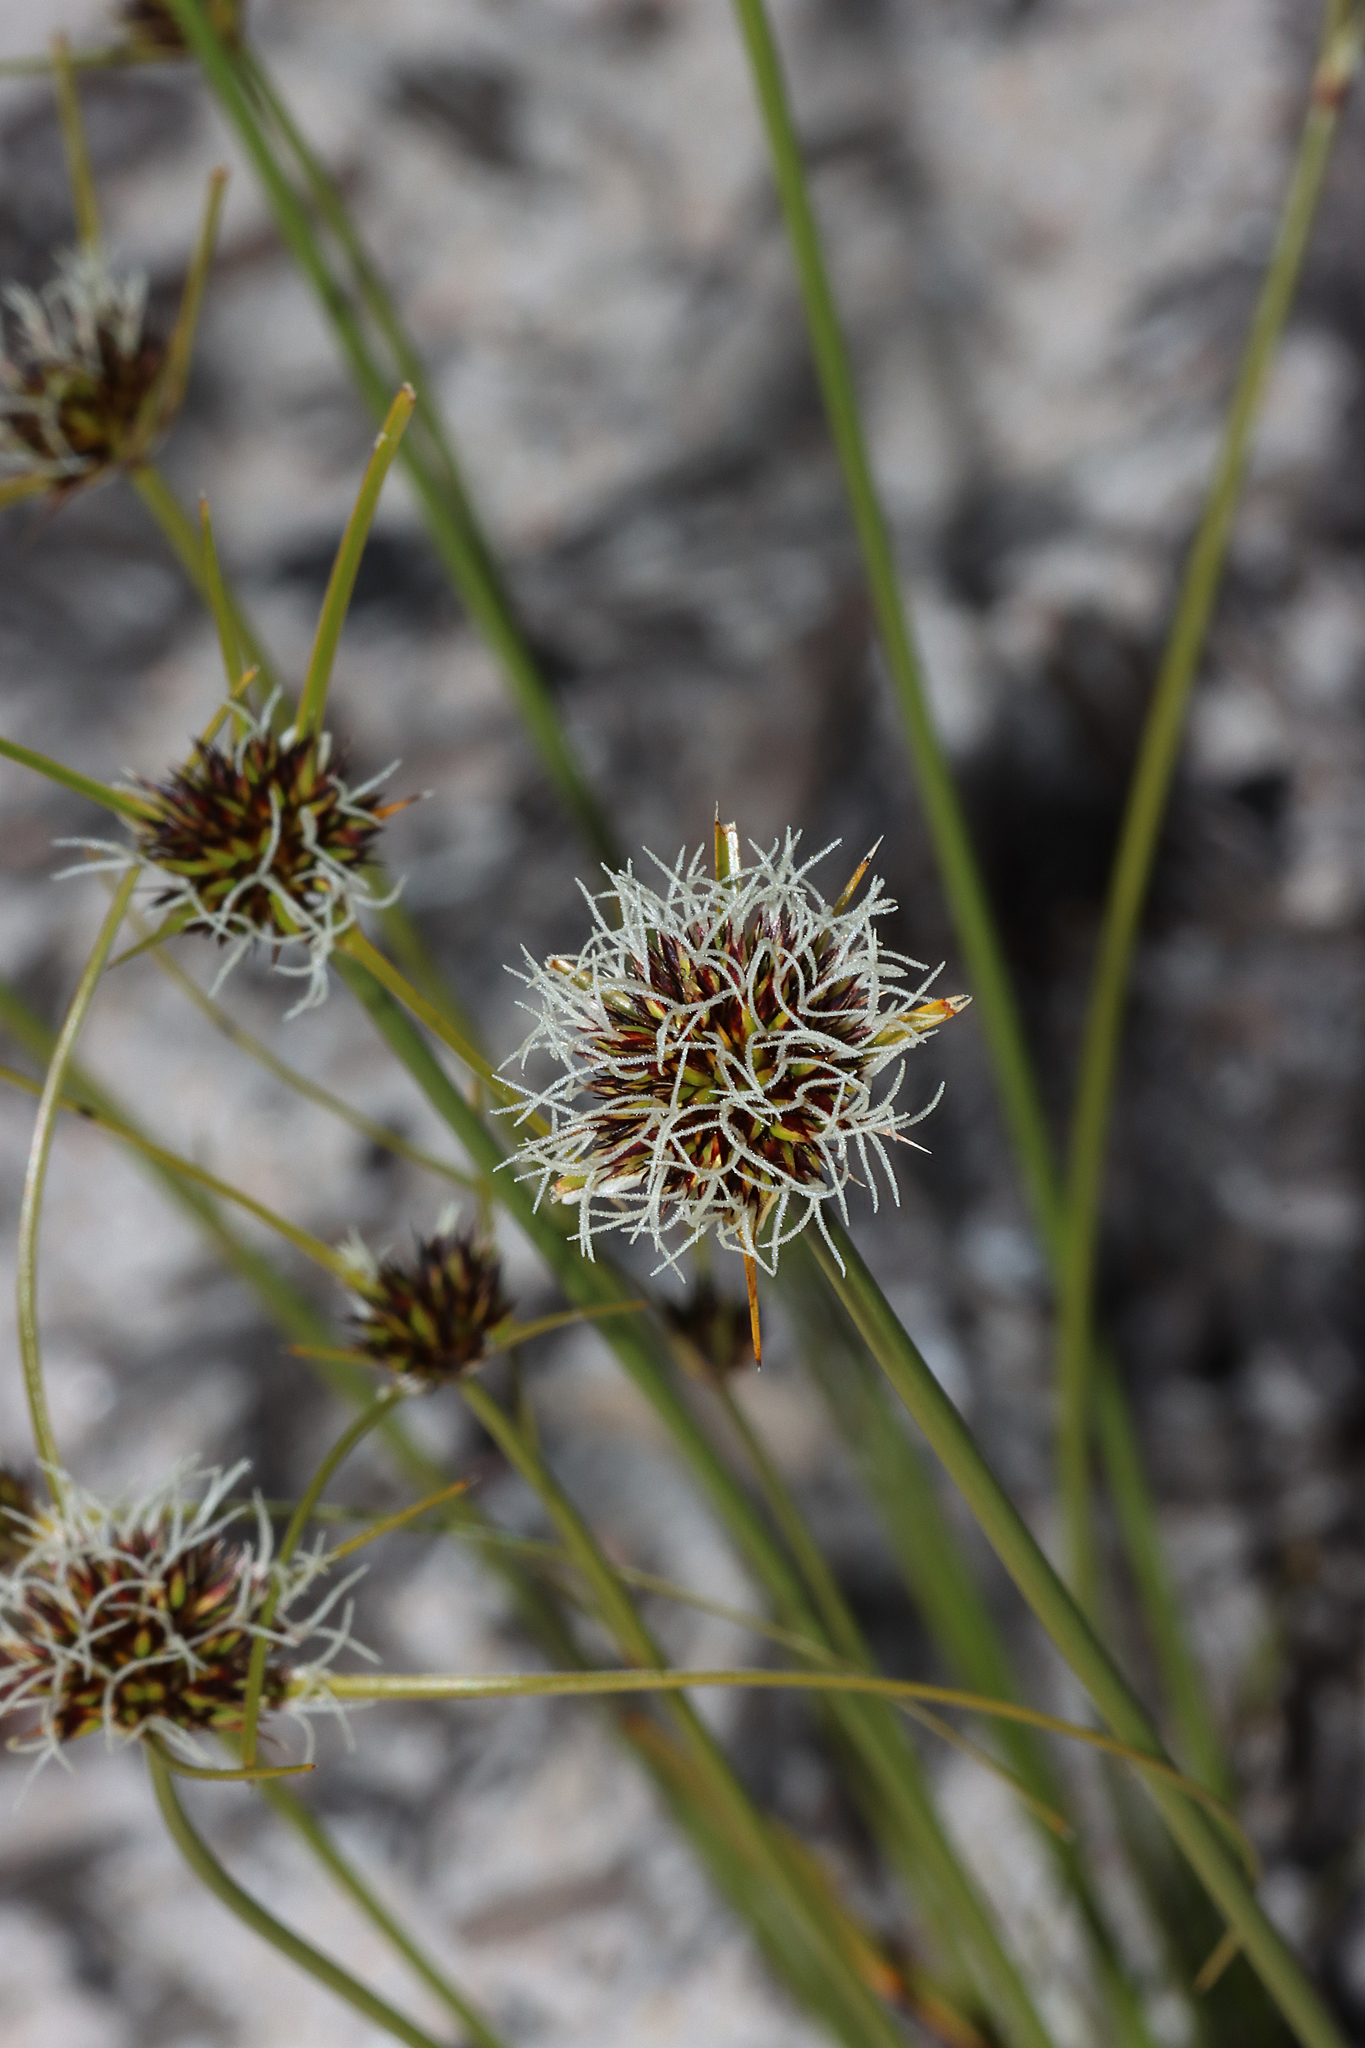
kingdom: Plantae
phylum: Tracheophyta
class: Liliopsida
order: Poales
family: Cyperaceae
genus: Schoenus
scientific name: Schoenus curvifolius
